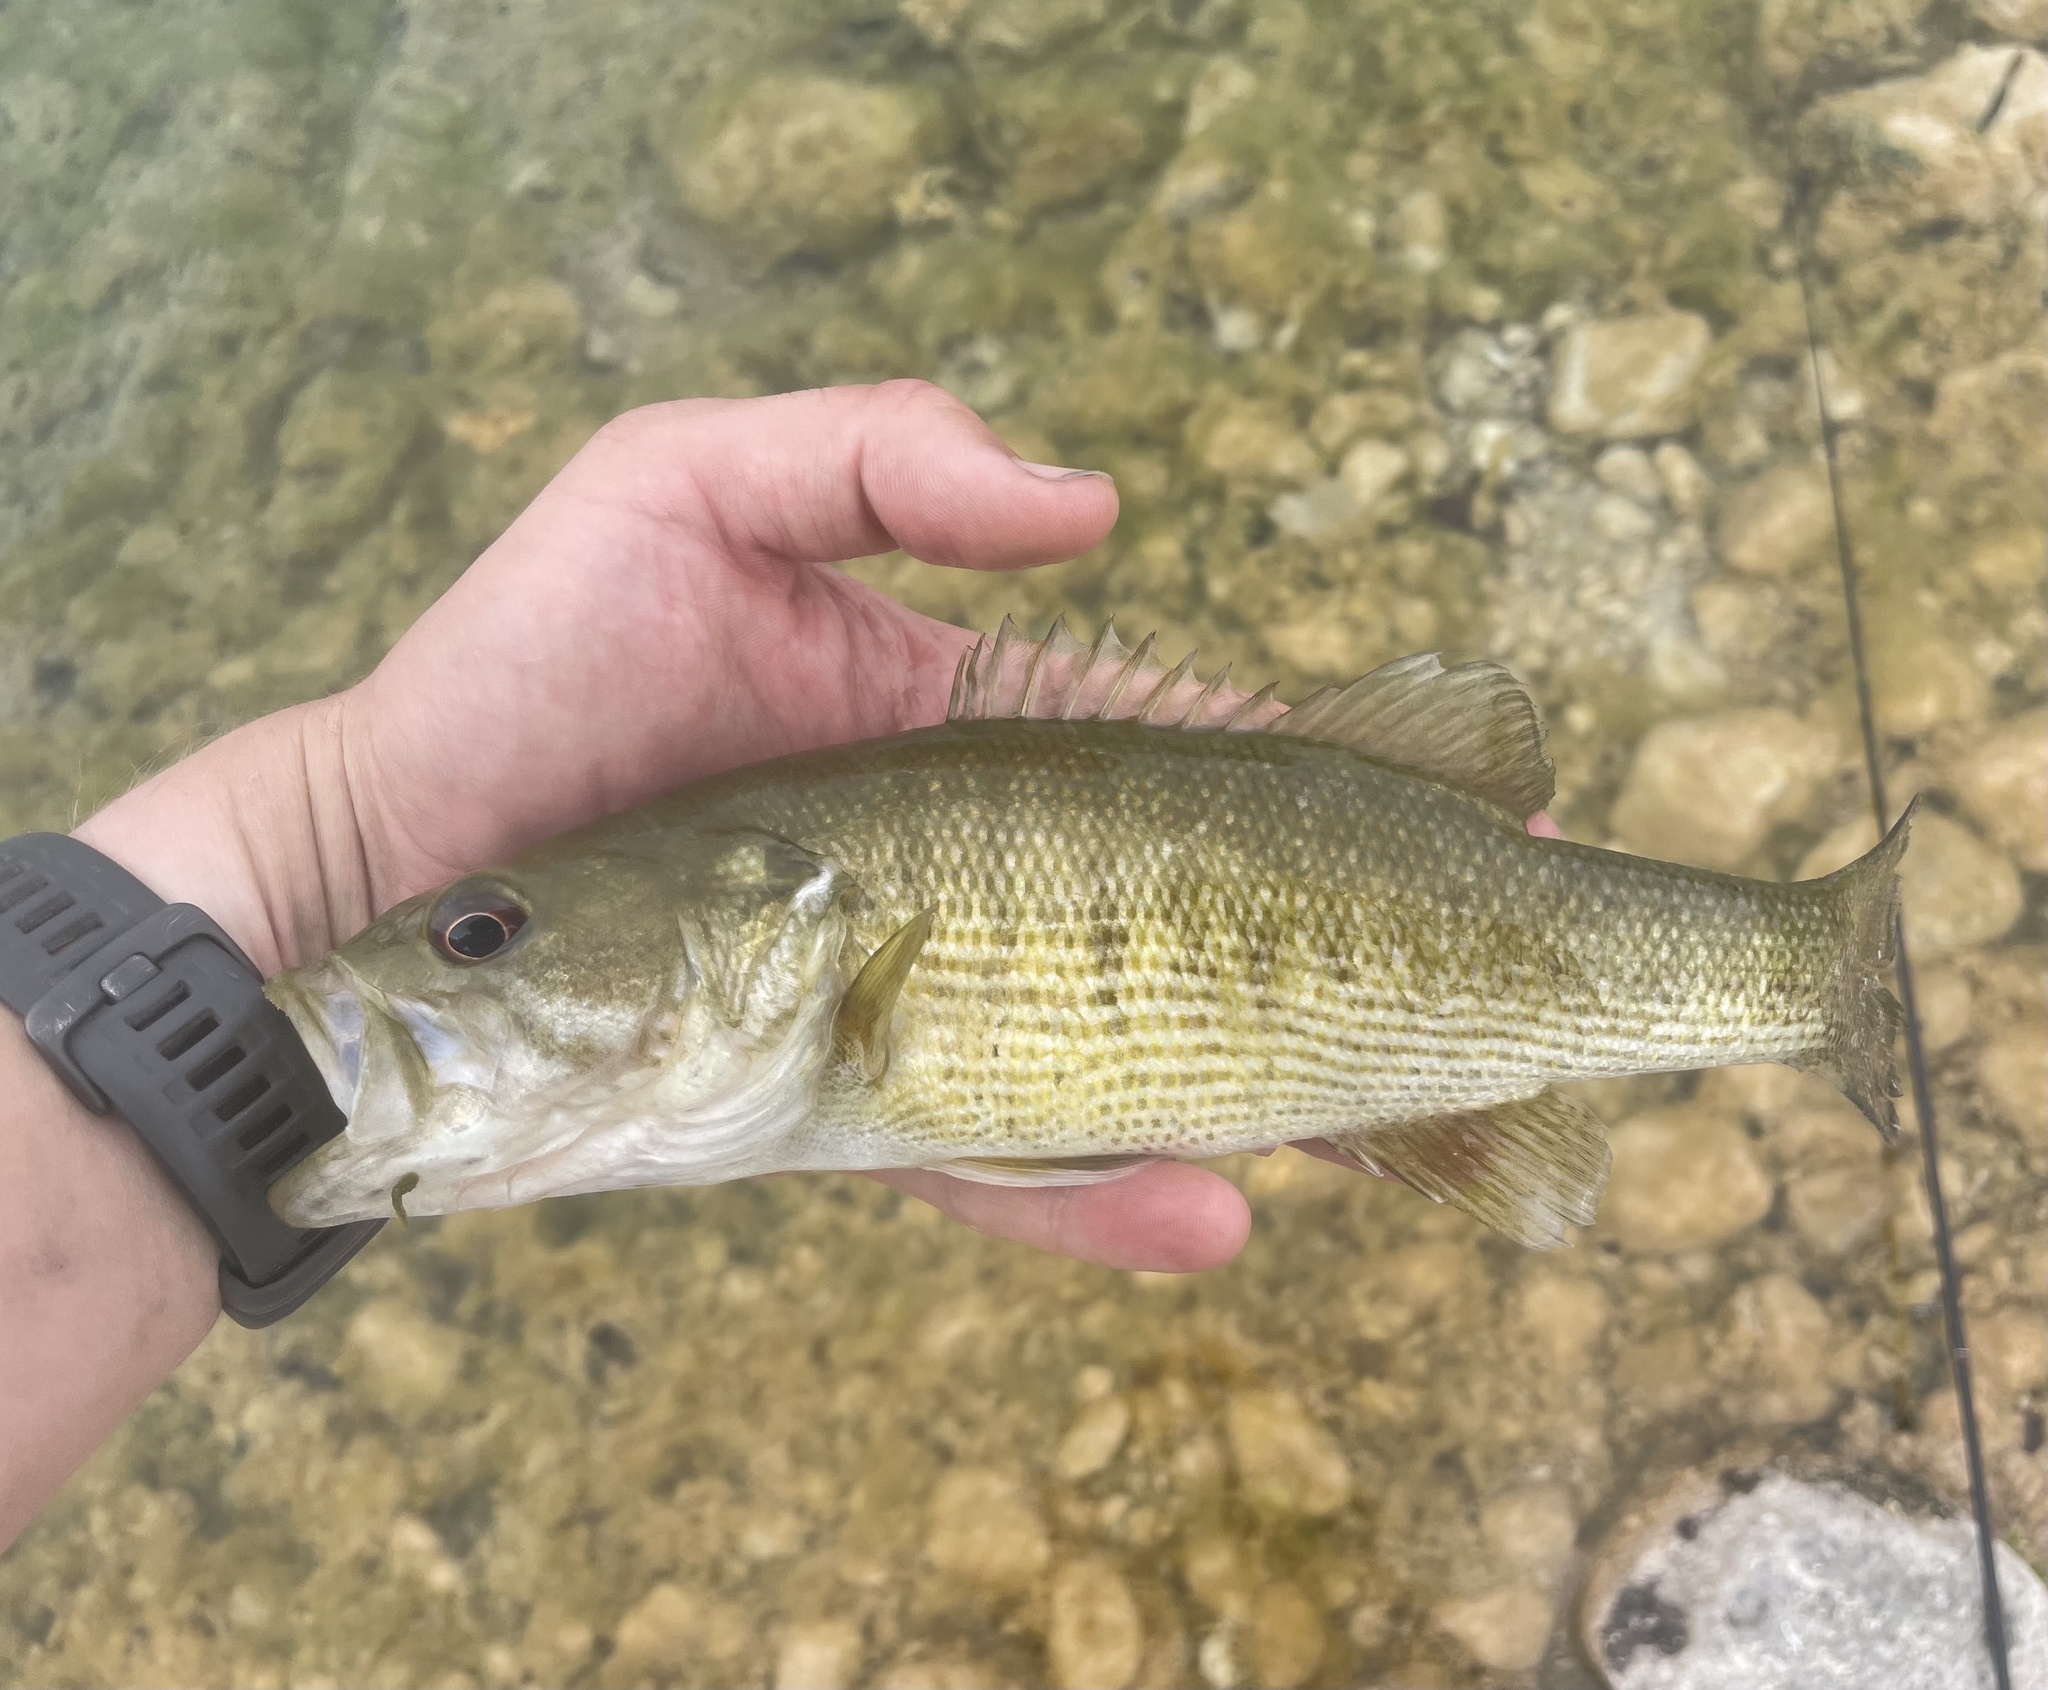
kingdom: Animalia
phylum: Chordata
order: Perciformes
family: Centrarchidae
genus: Micropterus
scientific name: Micropterus treculii
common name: Guadalupe bass
